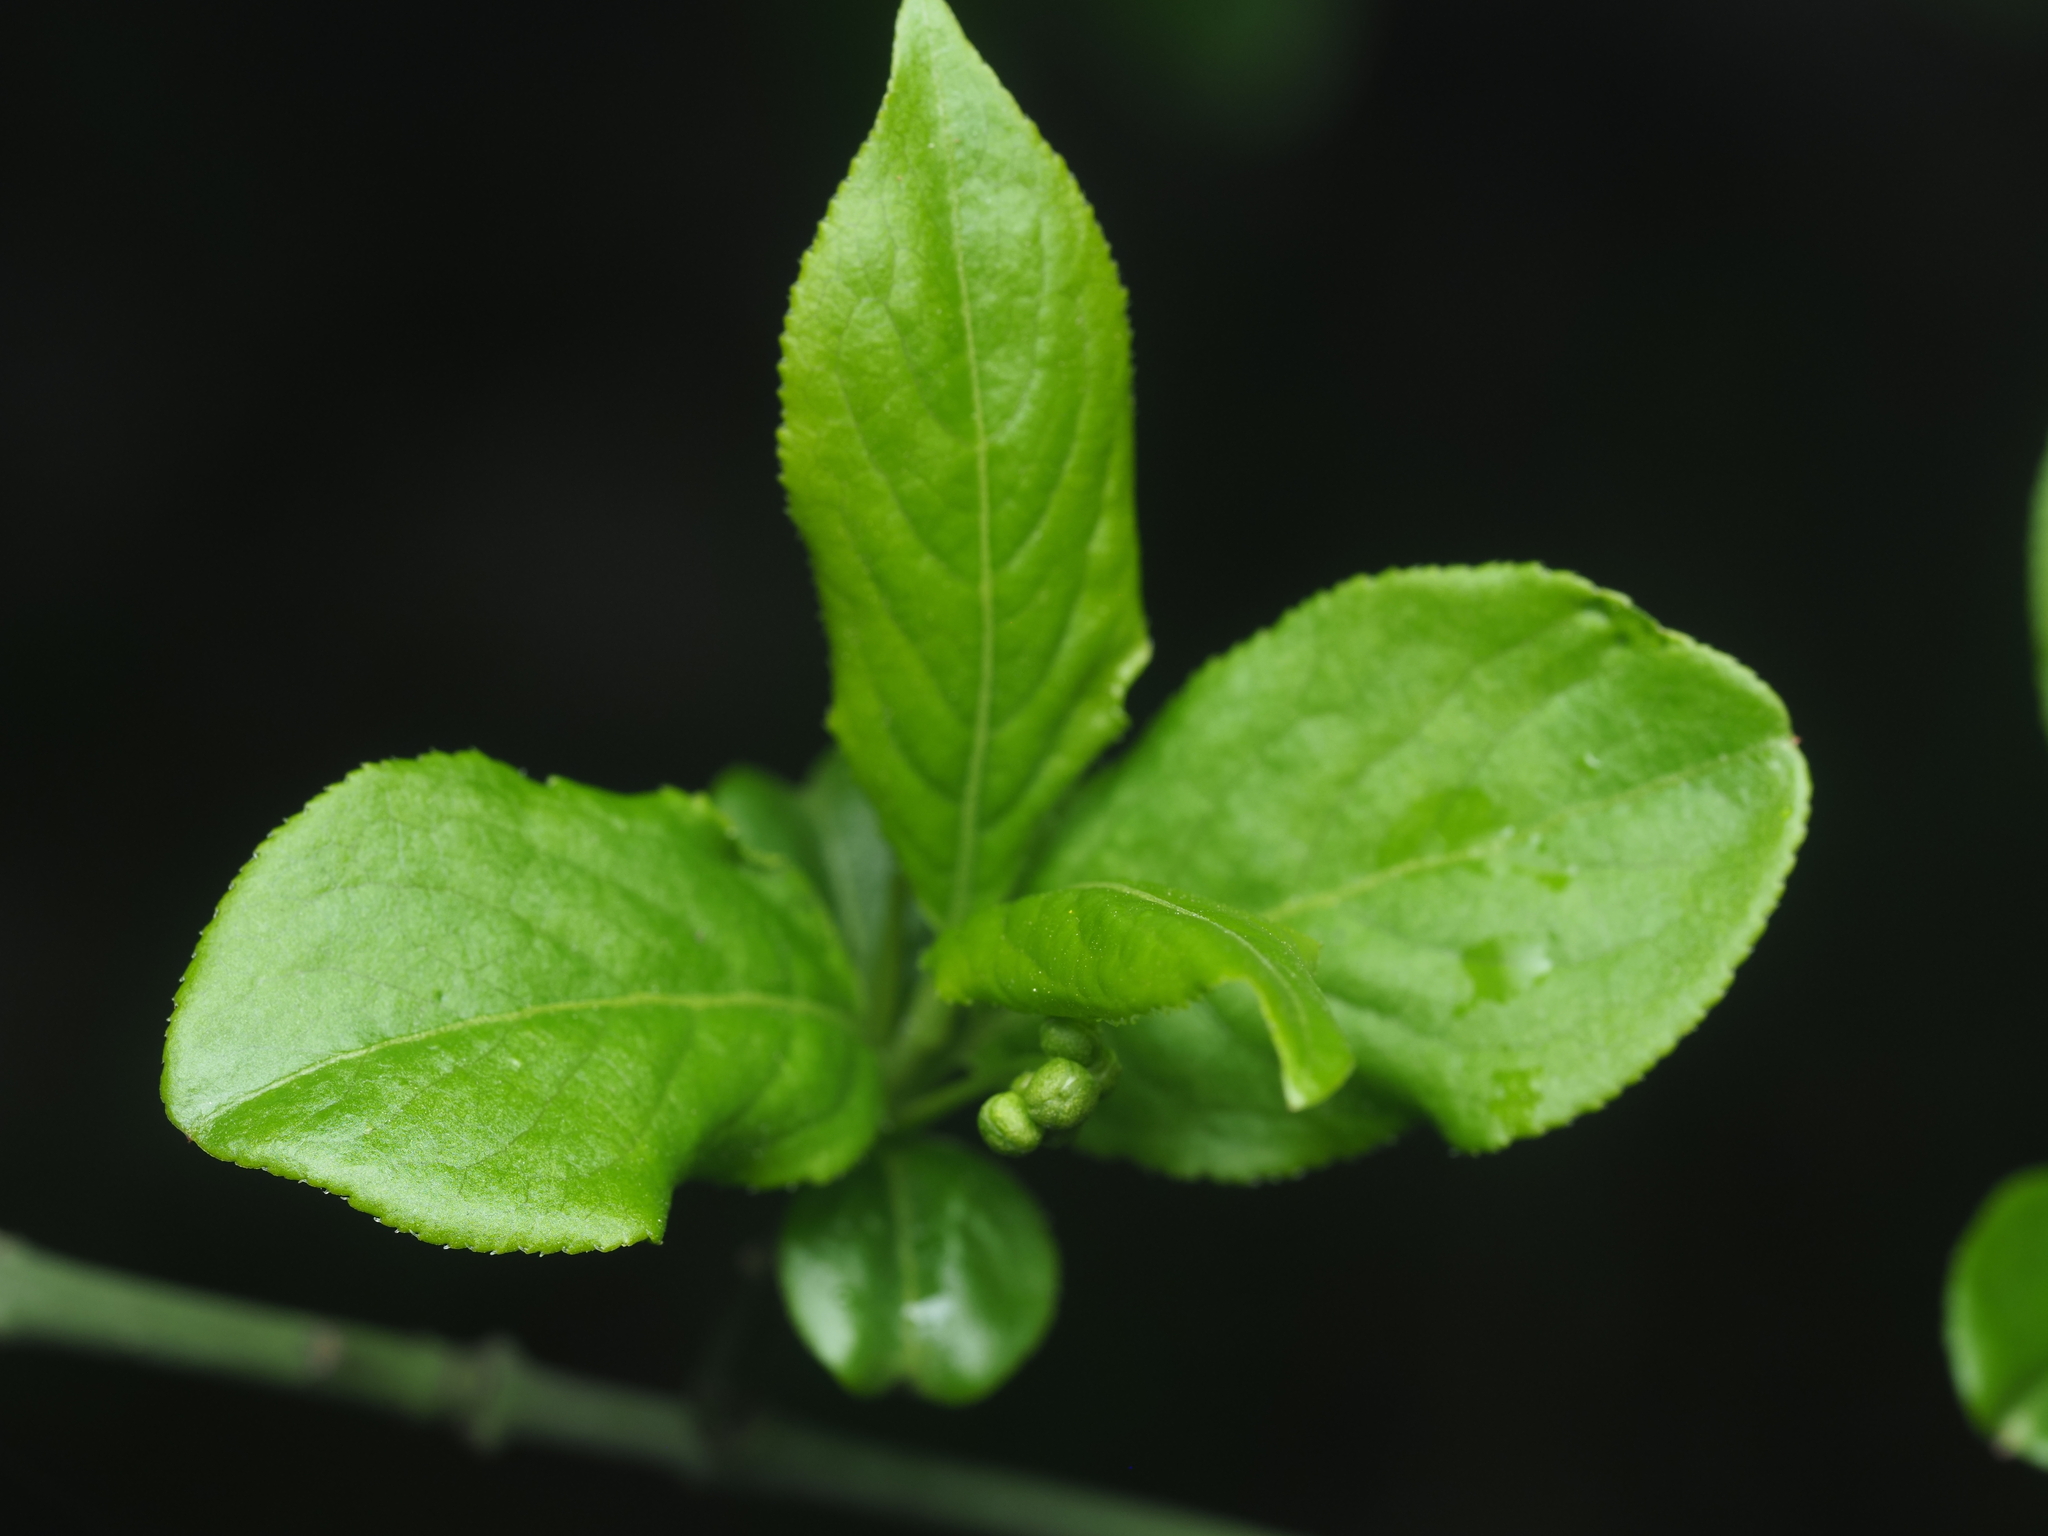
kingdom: Plantae
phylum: Tracheophyta
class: Magnoliopsida
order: Celastrales
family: Celastraceae
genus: Euonymus
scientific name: Euonymus europaeus
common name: Spindle
